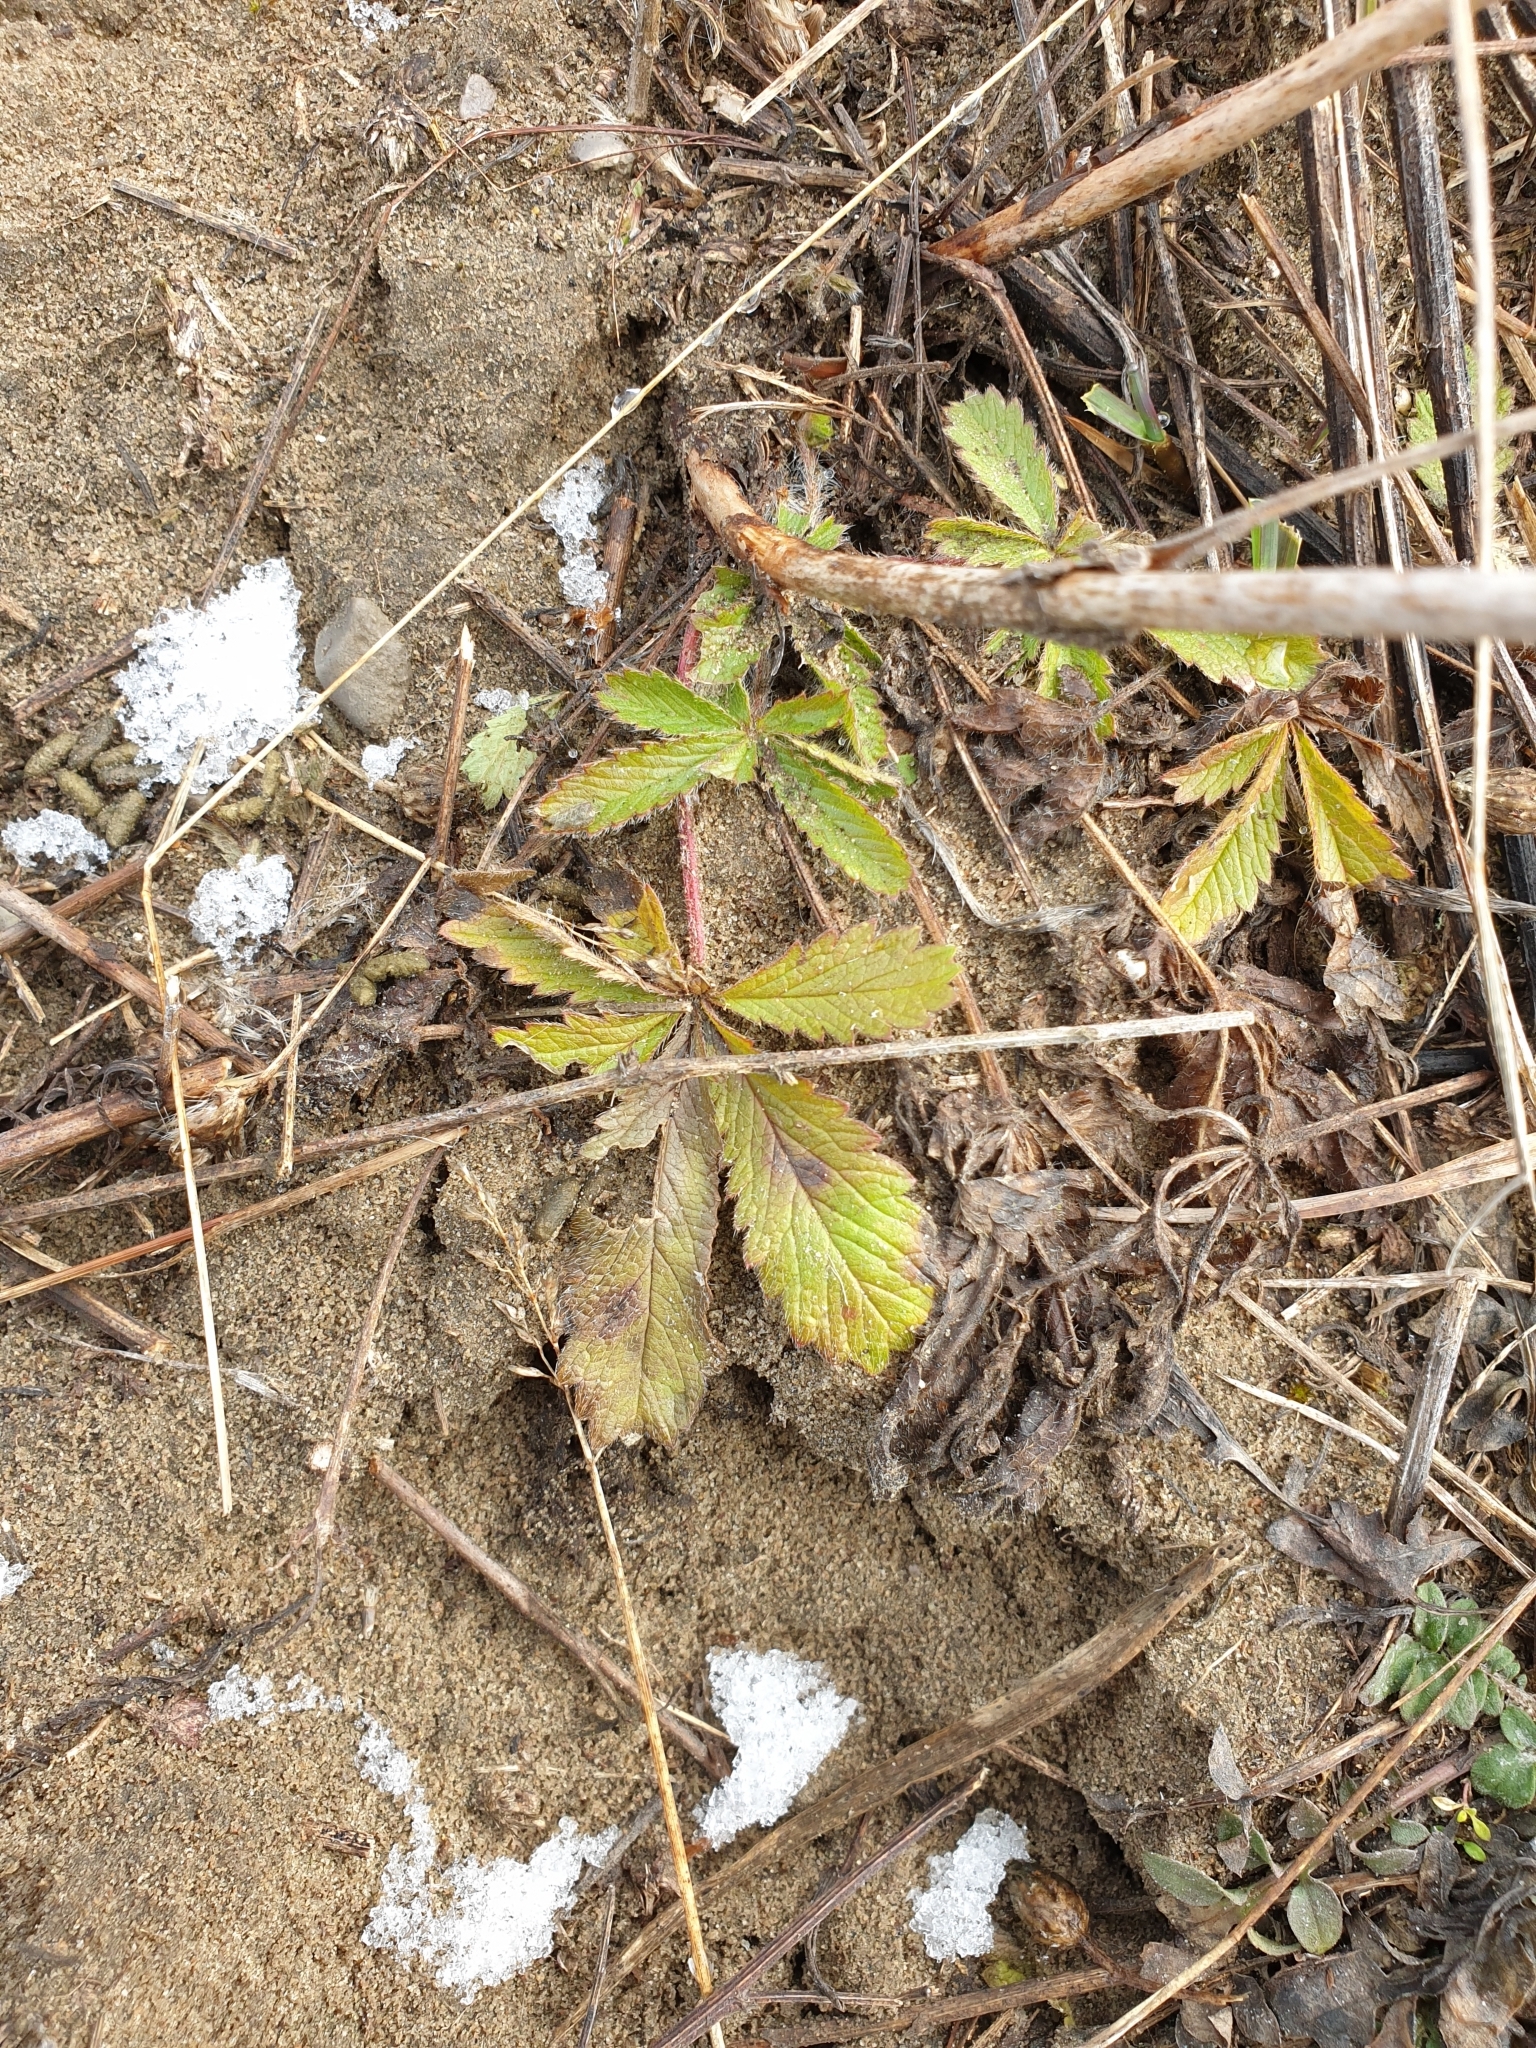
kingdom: Plantae
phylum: Tracheophyta
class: Magnoliopsida
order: Rosales
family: Rosaceae
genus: Potentilla
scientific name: Potentilla recta
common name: Sulphur cinquefoil
